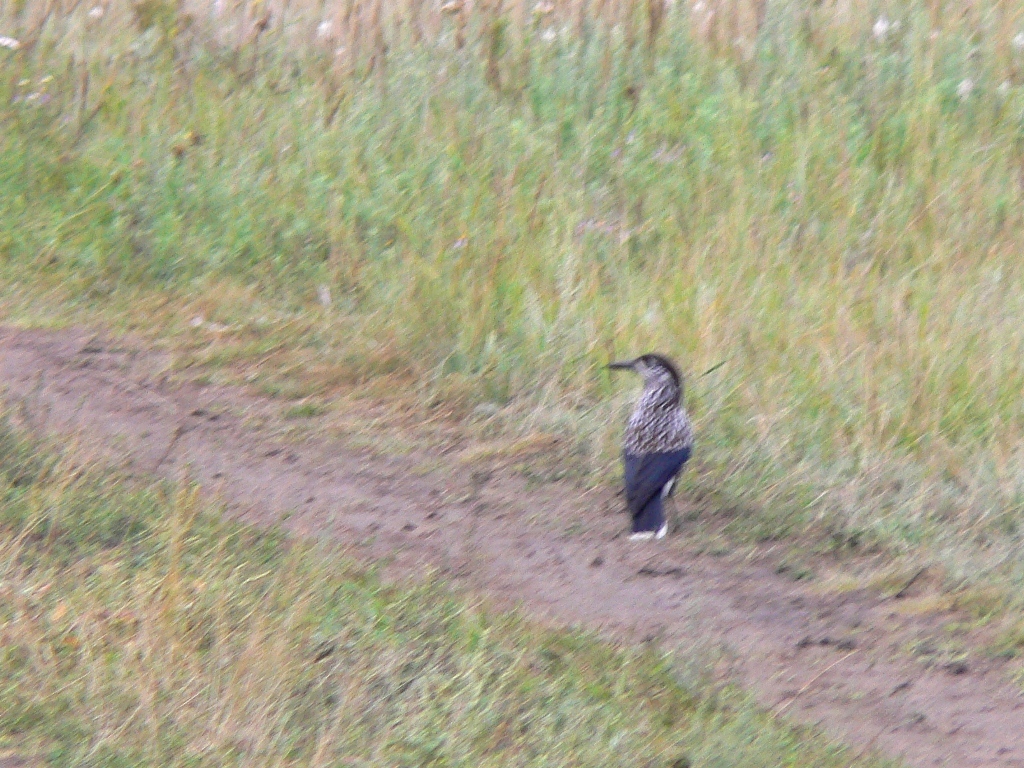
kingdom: Animalia
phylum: Chordata
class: Aves
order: Passeriformes
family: Corvidae
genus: Nucifraga
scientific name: Nucifraga caryocatactes
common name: Spotted nutcracker
